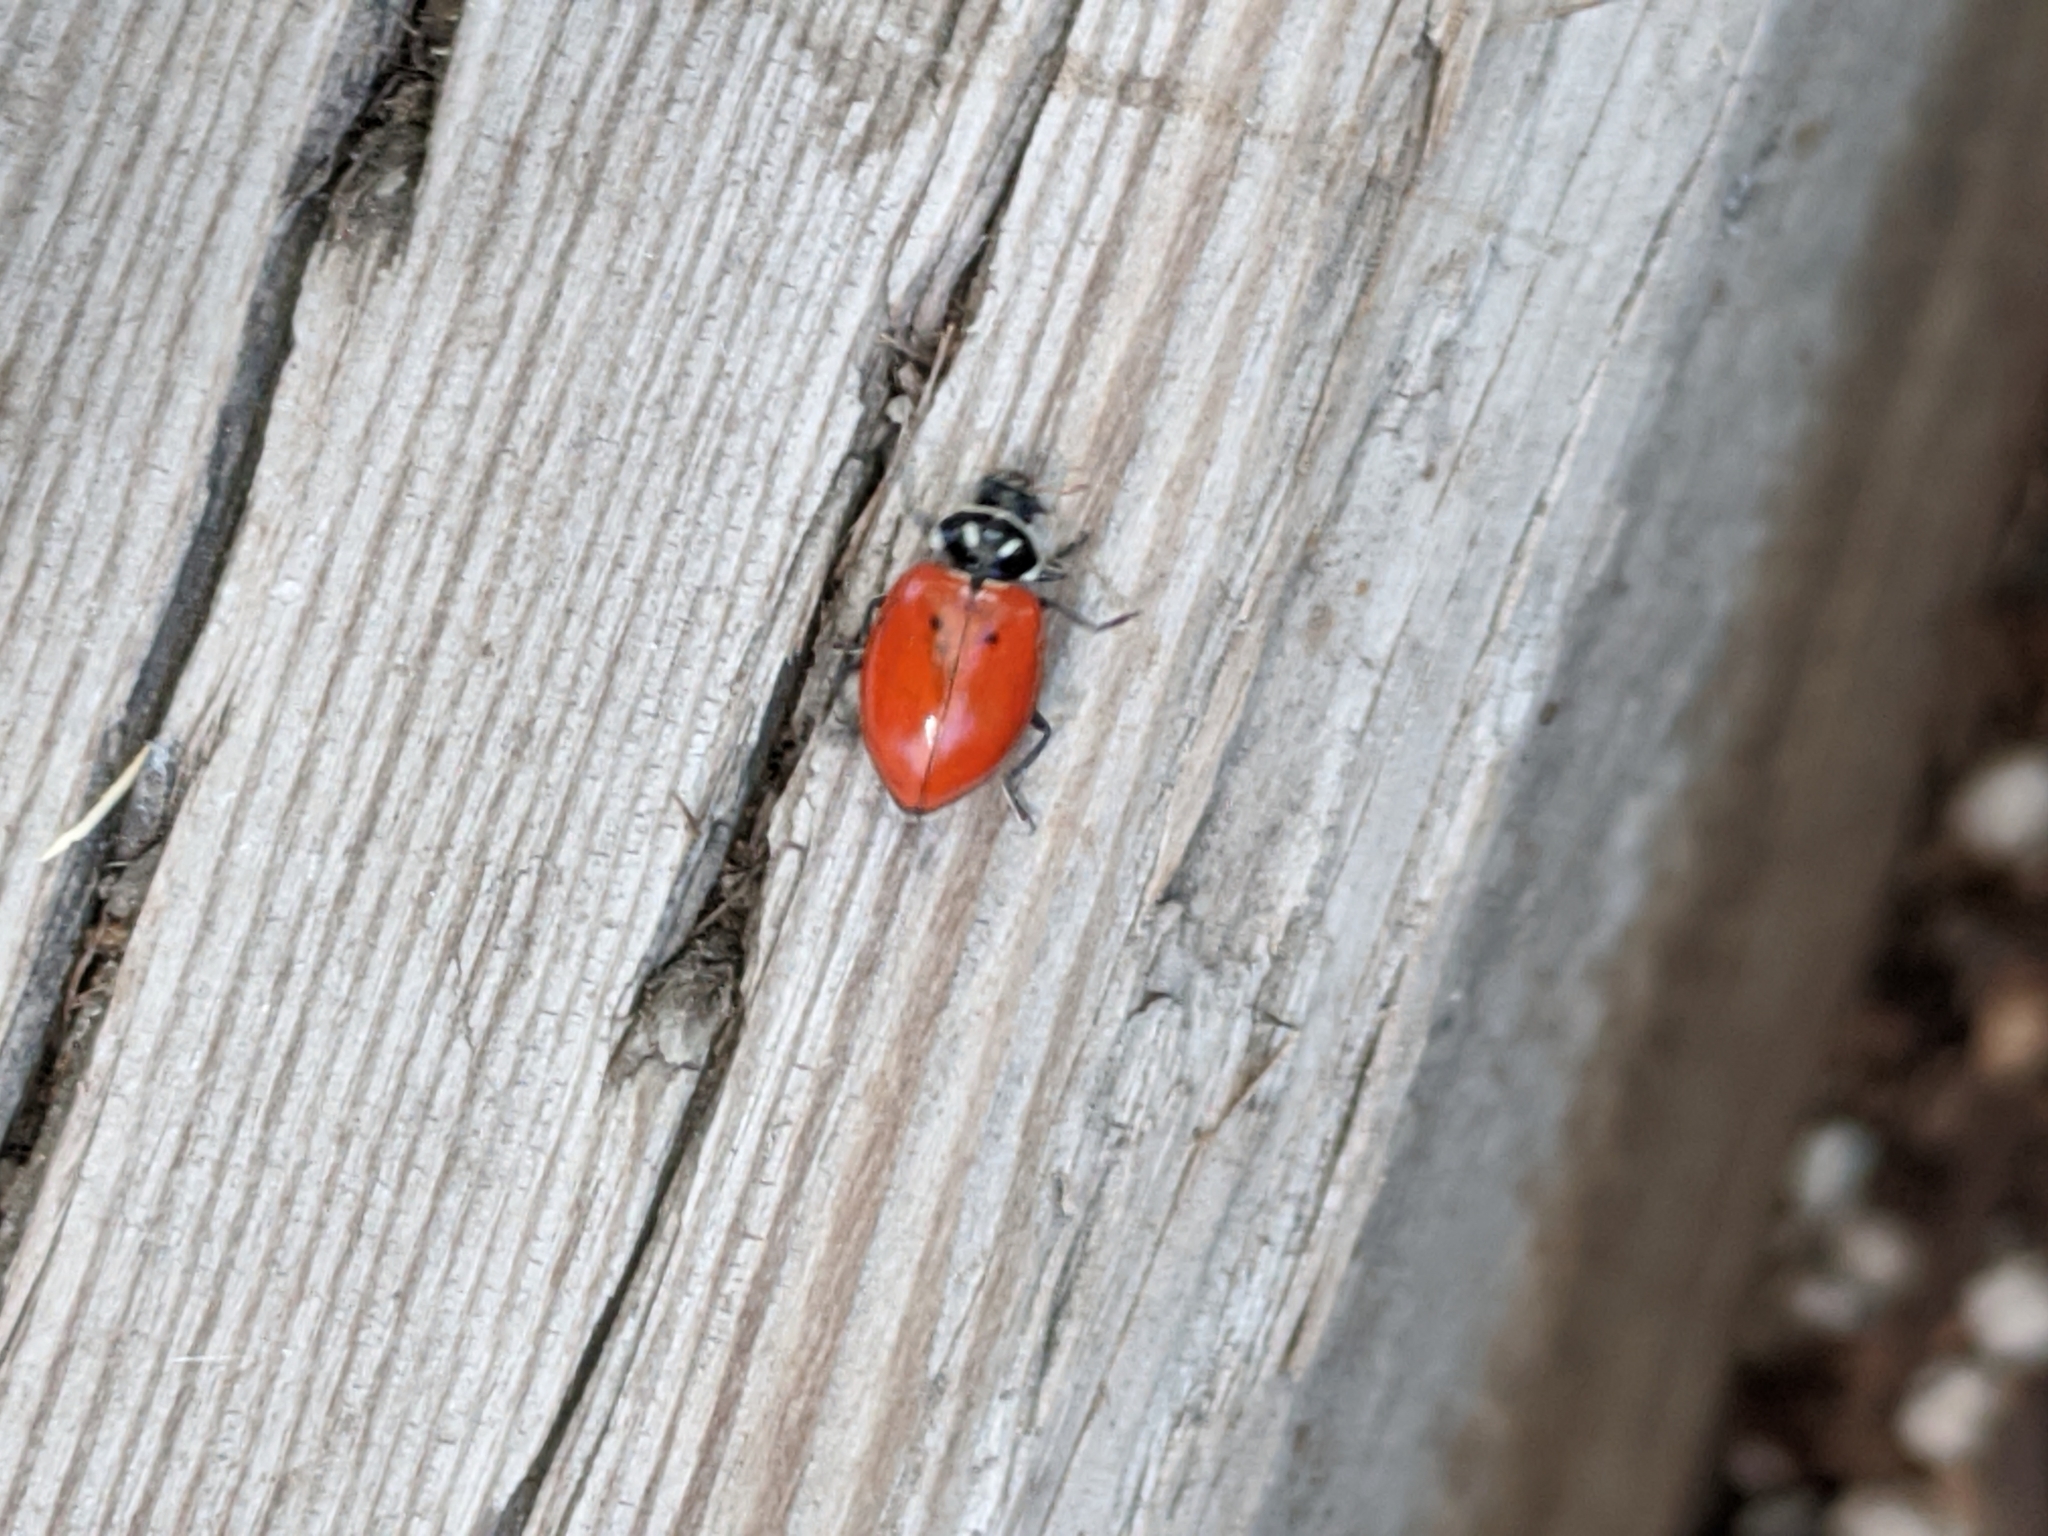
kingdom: Animalia
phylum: Arthropoda
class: Insecta
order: Coleoptera
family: Coccinellidae
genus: Hippodamia
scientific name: Hippodamia convergens
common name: Convergent lady beetle
